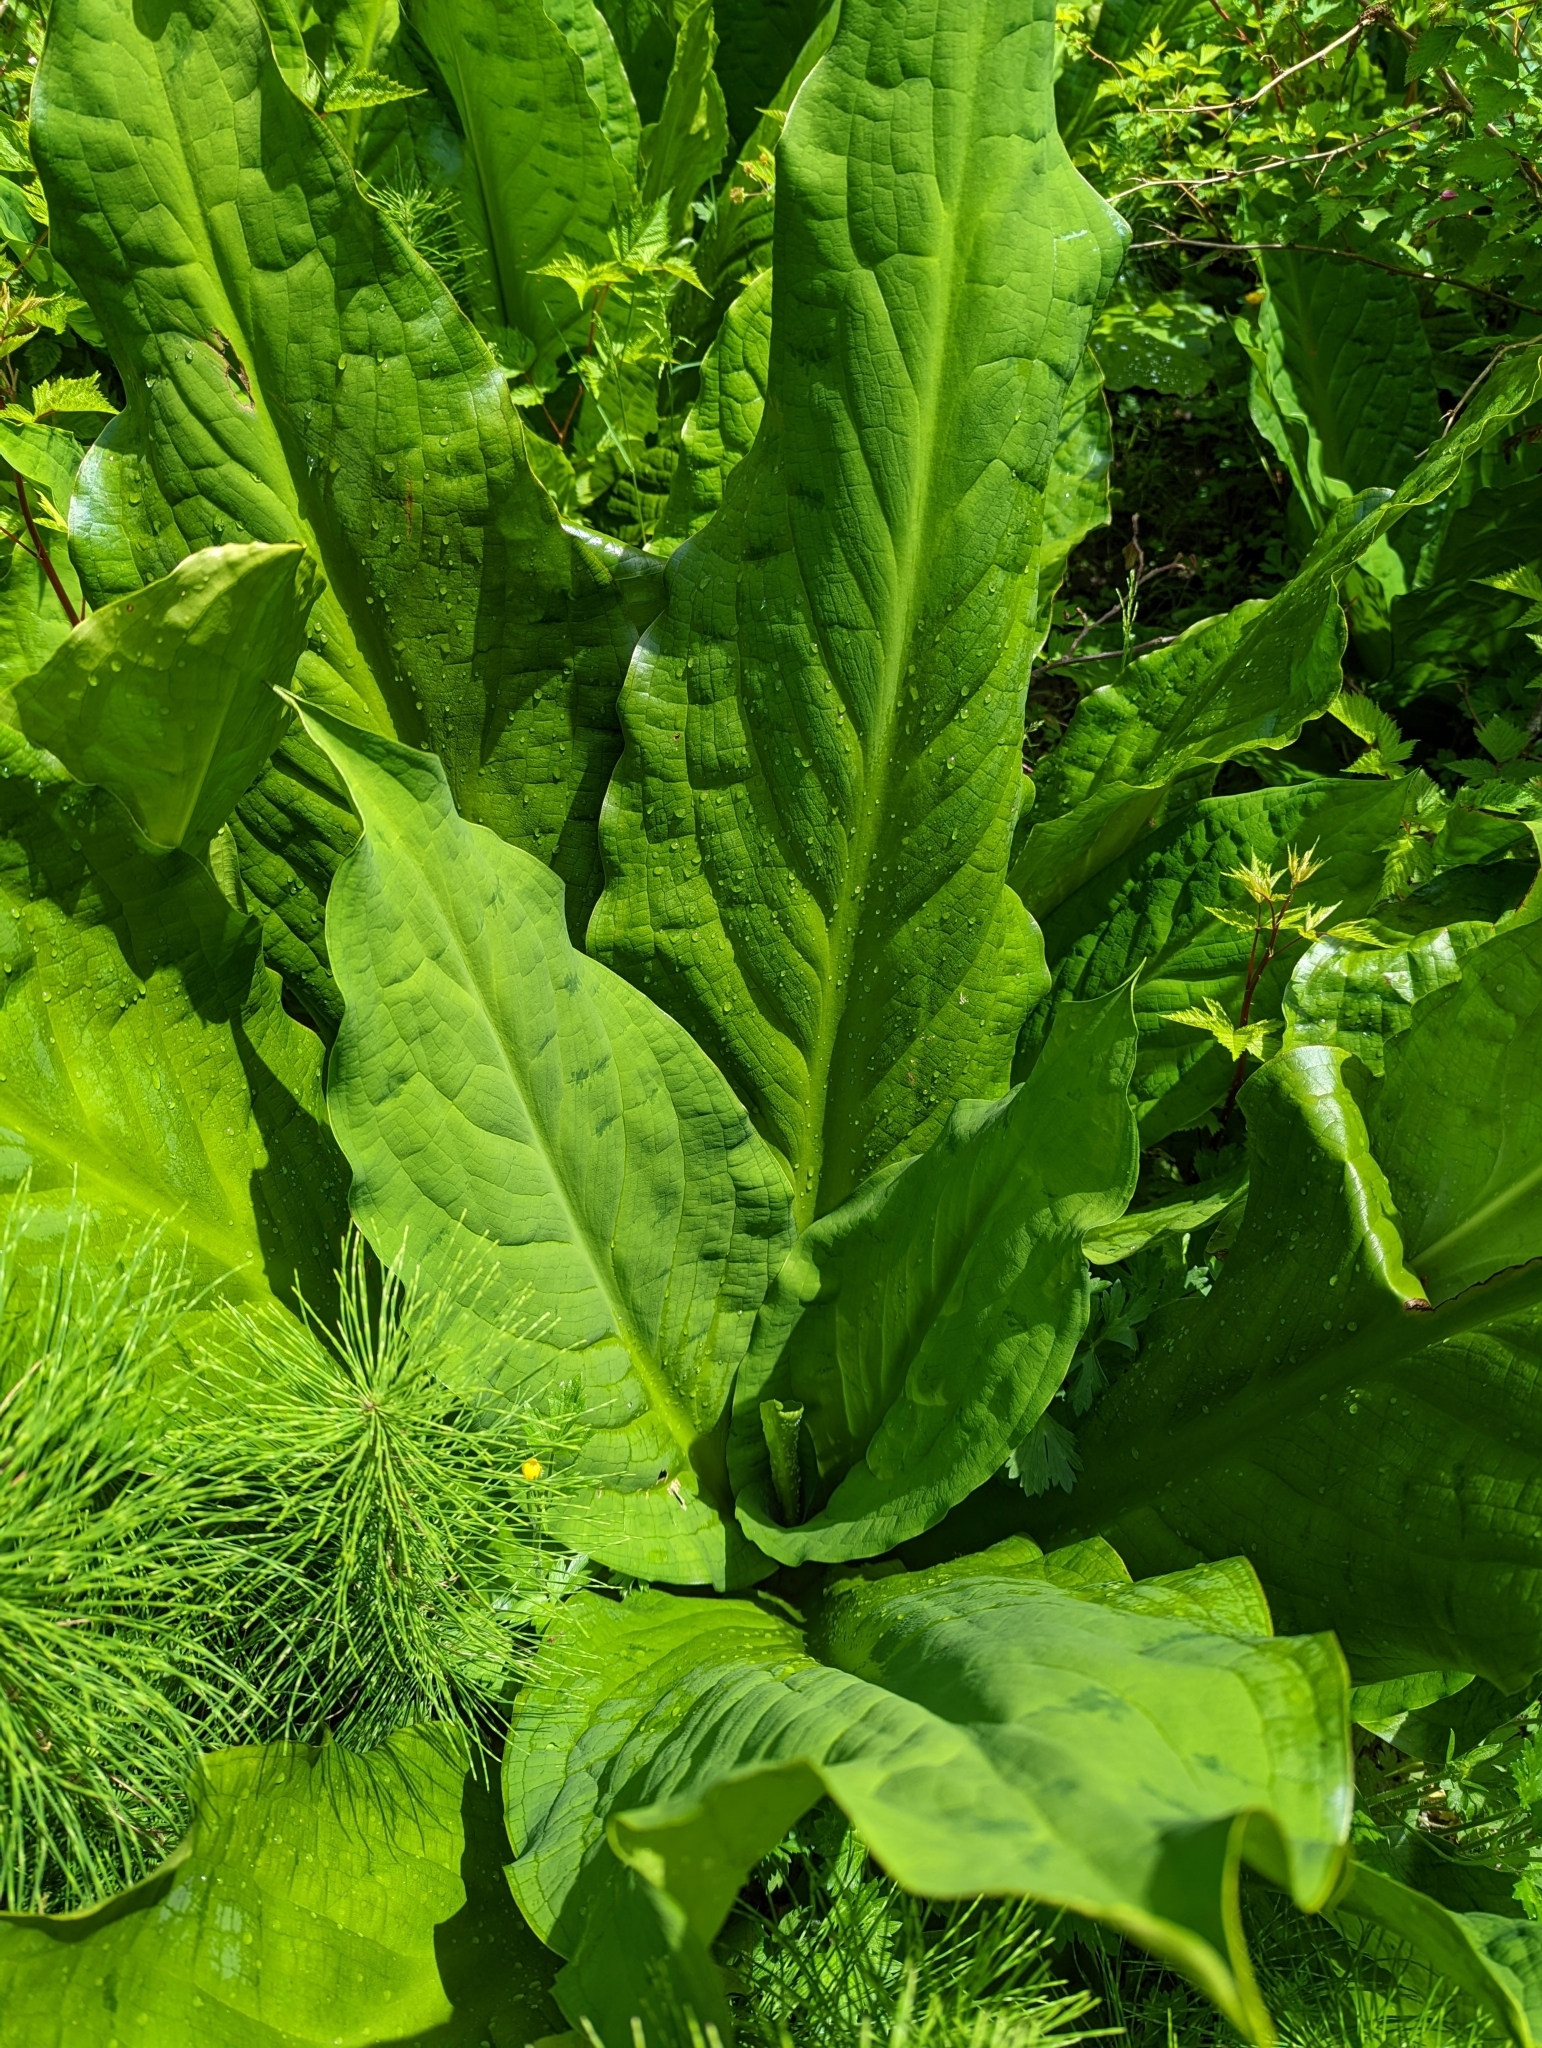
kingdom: Plantae
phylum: Tracheophyta
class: Liliopsida
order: Alismatales
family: Araceae
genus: Lysichiton
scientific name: Lysichiton americanus
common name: American skunk cabbage
